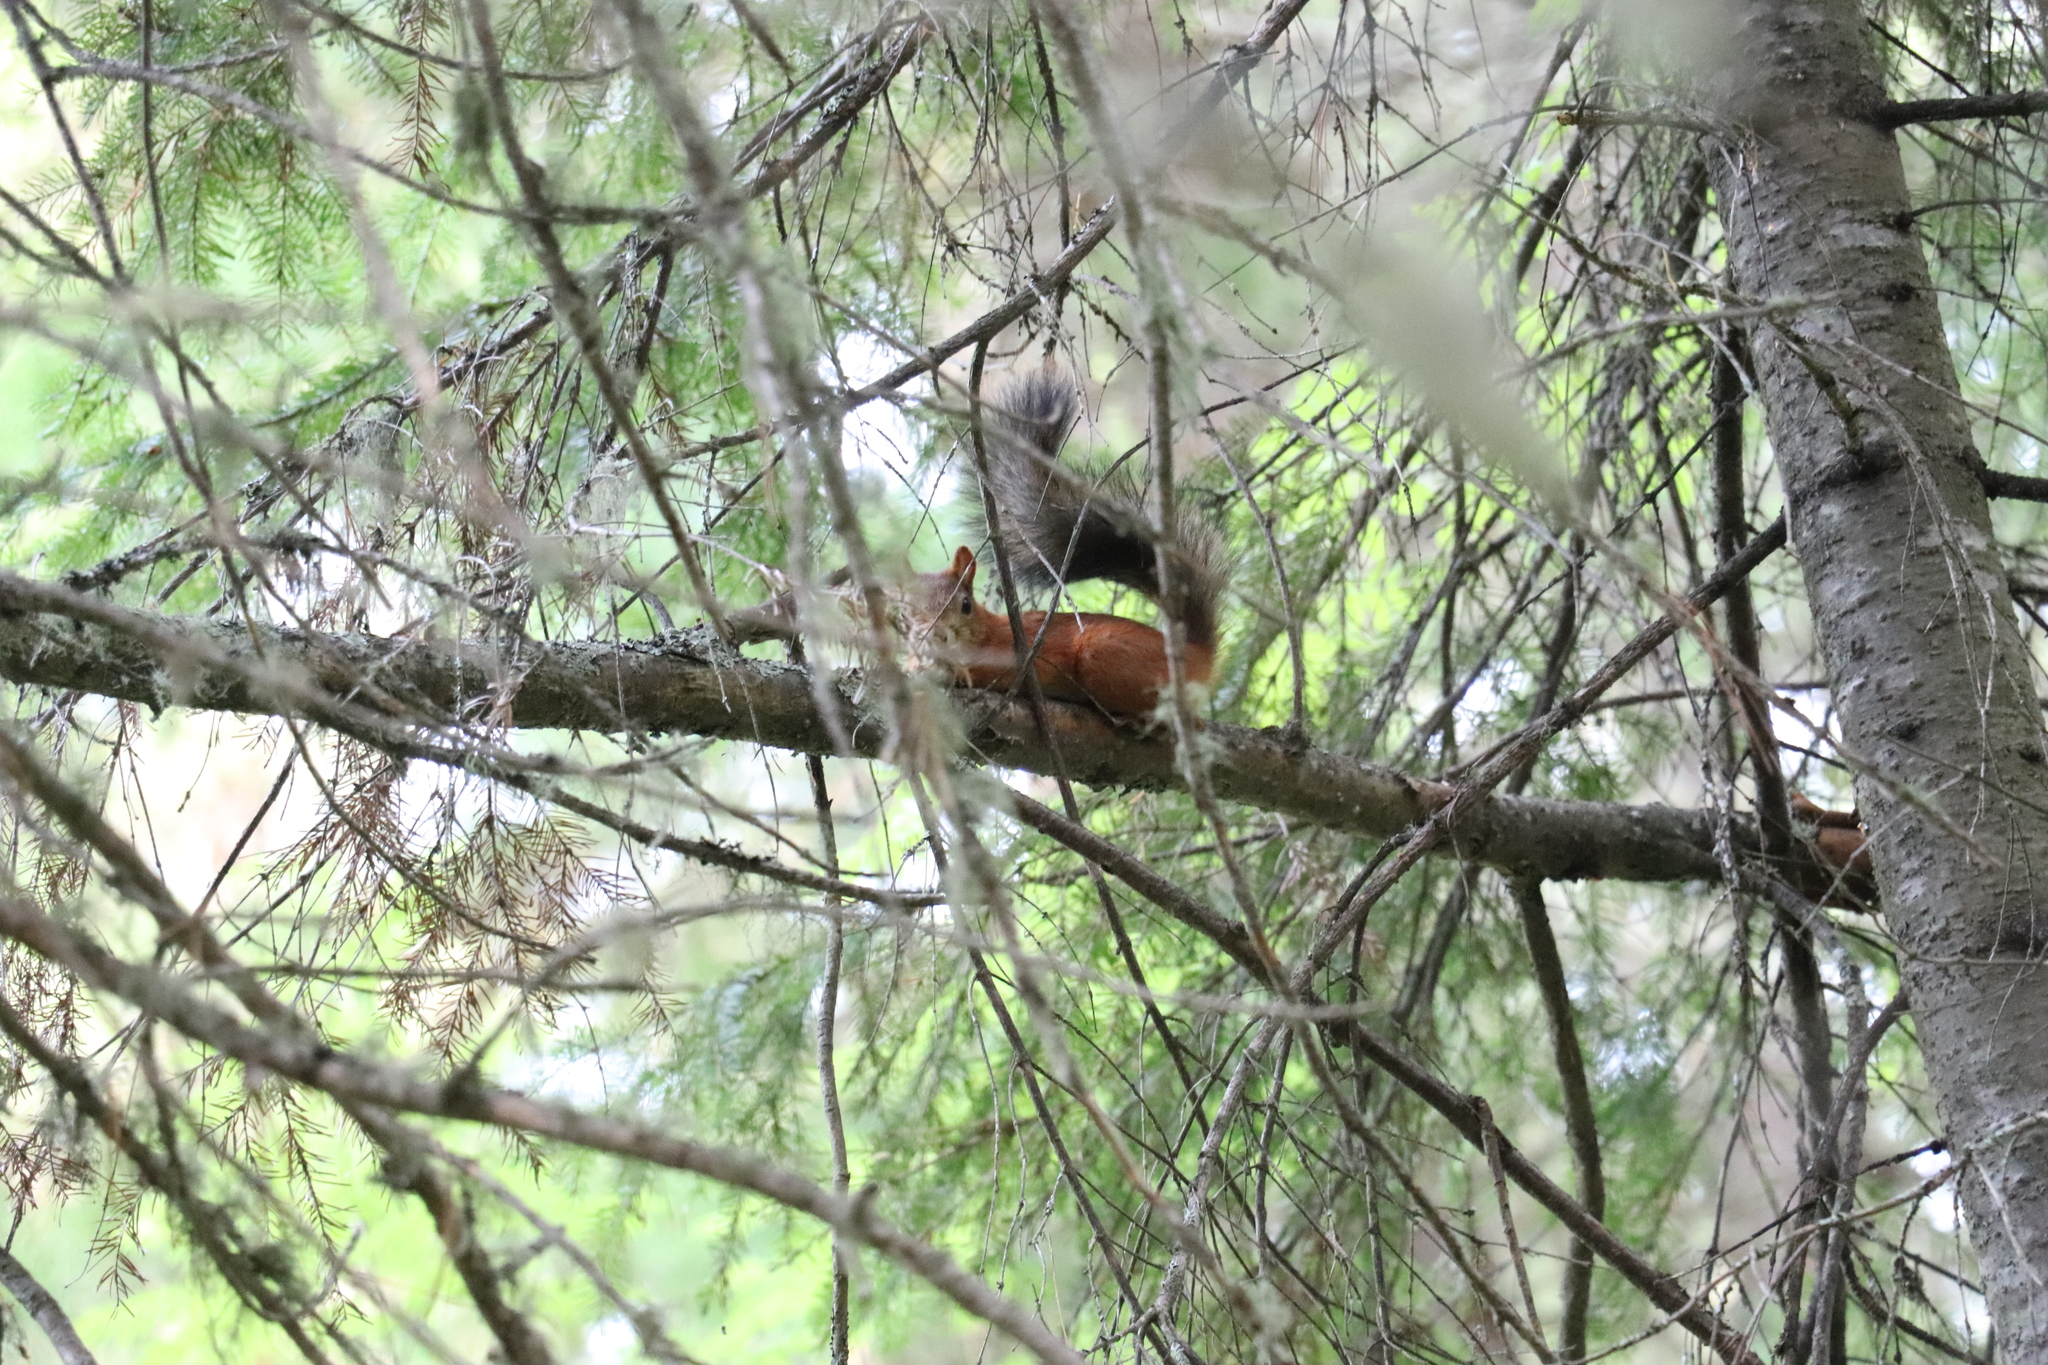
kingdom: Animalia
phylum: Chordata
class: Mammalia
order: Rodentia
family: Sciuridae
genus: Sciurus
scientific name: Sciurus vulgaris
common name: Eurasian red squirrel
